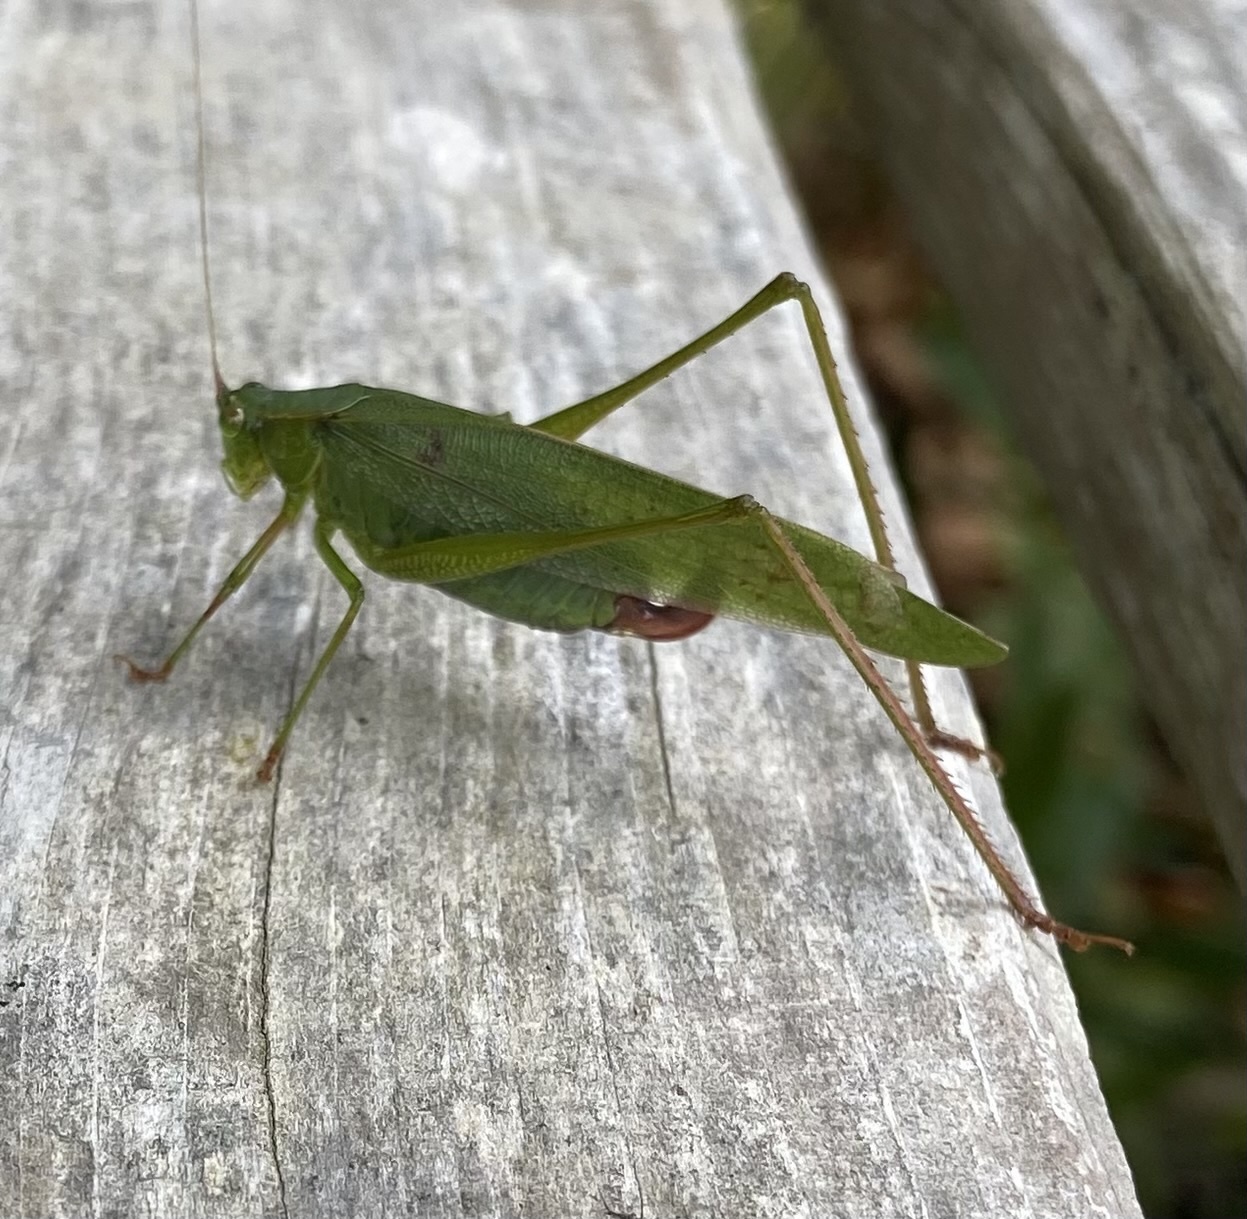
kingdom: Animalia
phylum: Arthropoda
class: Insecta
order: Orthoptera
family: Tettigoniidae
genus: Scudderia
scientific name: Scudderia furcata
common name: Fork-tailed bush katydid
